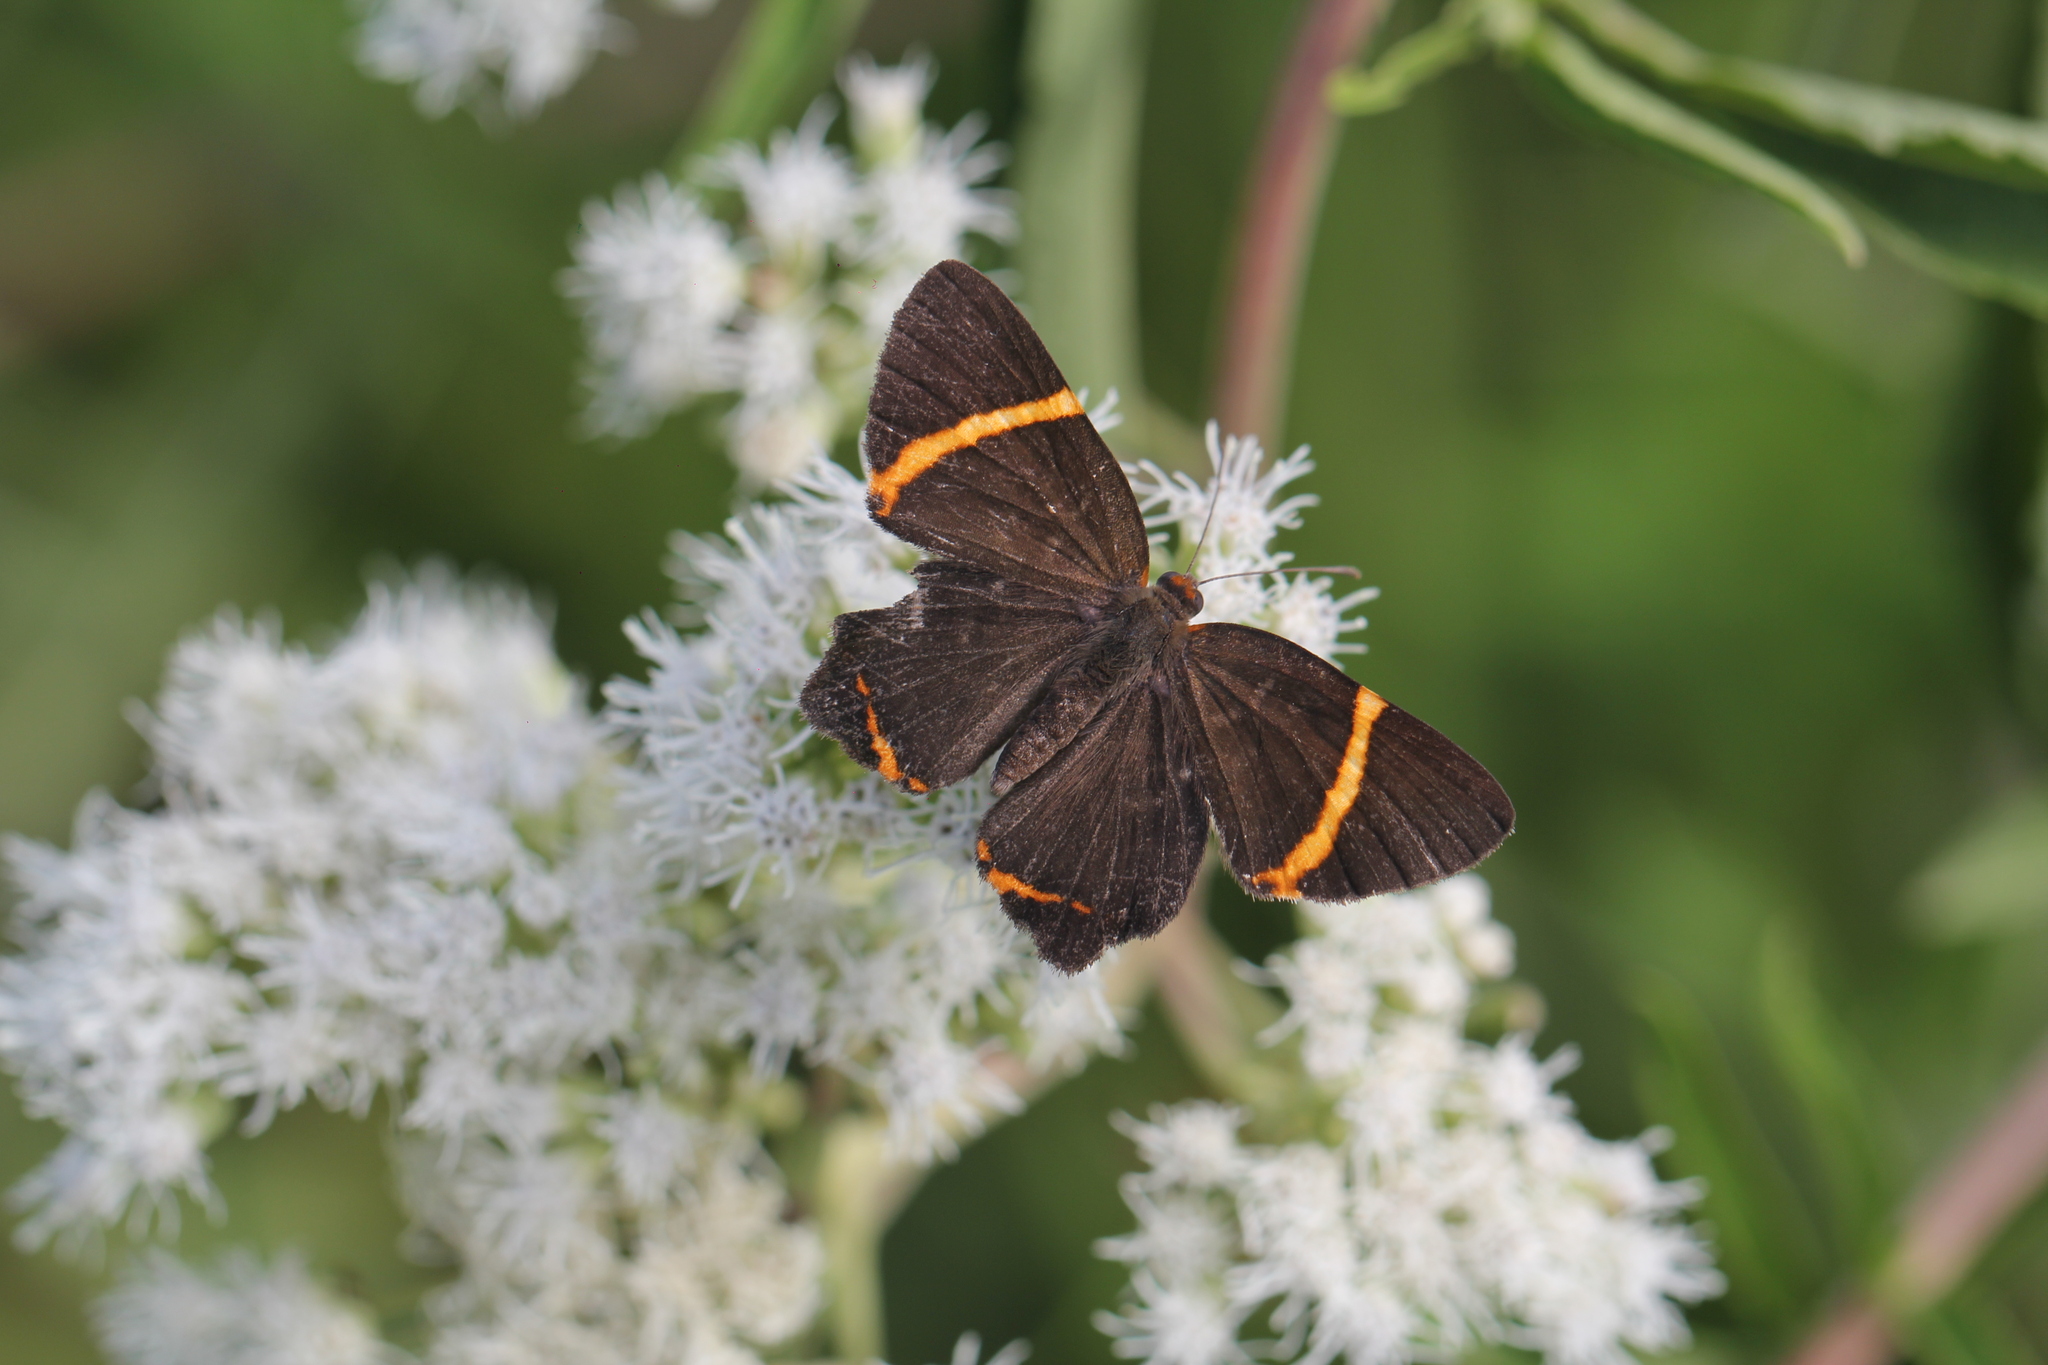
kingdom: Animalia
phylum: Arthropoda
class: Insecta
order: Lepidoptera
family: Riodinidae
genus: Riodina
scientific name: Riodina lysippoides
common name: Little dancer metalmark
